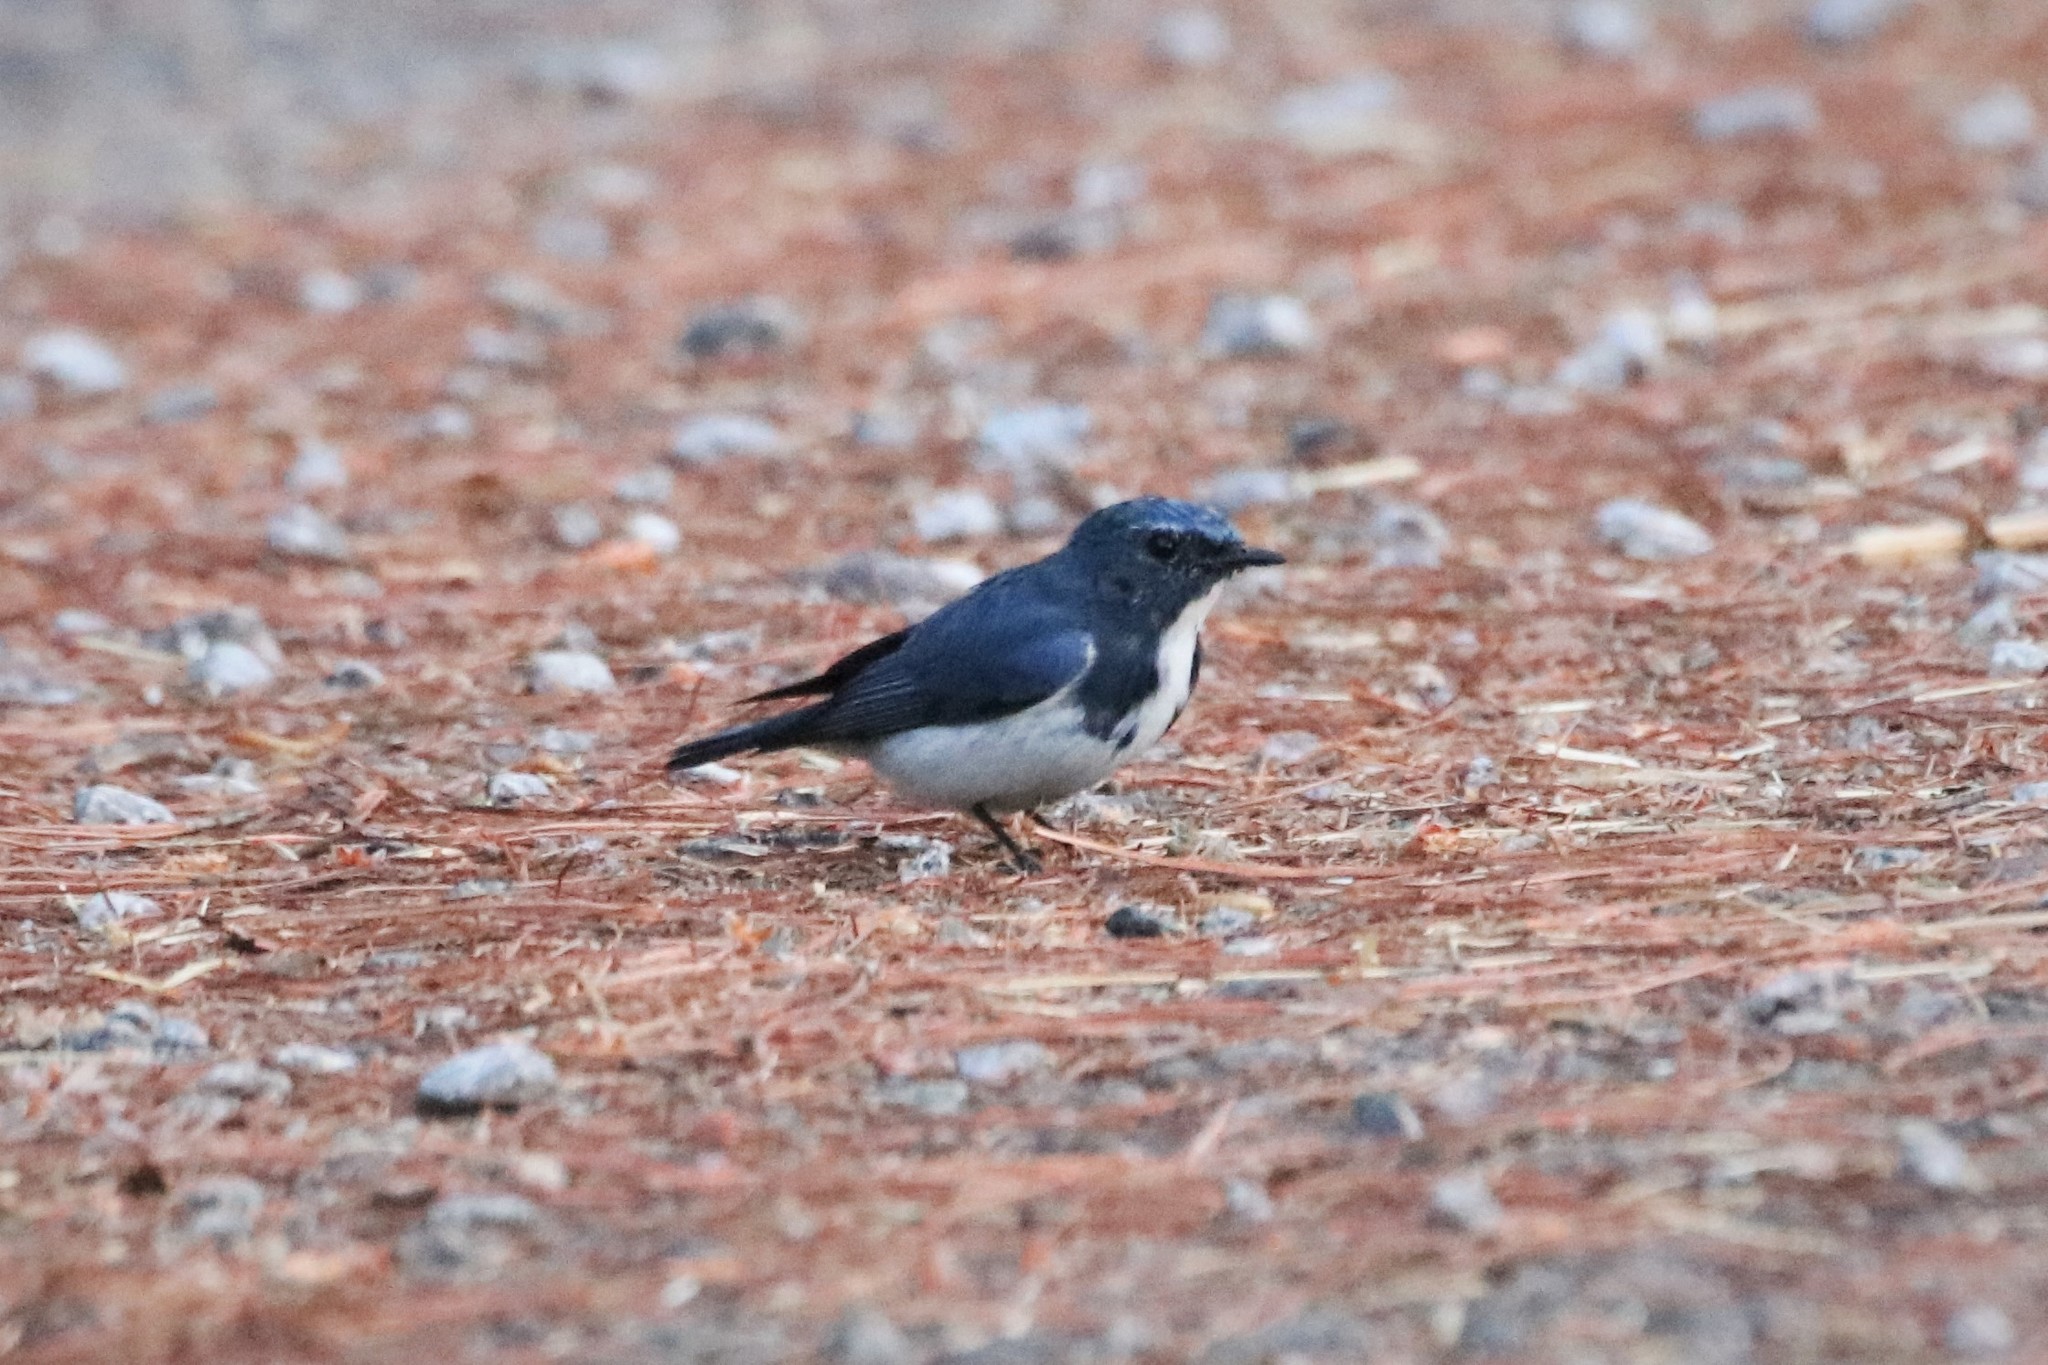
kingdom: Animalia
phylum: Chordata
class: Aves
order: Passeriformes
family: Muscicapidae
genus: Ficedula
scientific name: Ficedula superciliaris
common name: Ultramarine flycatcher
